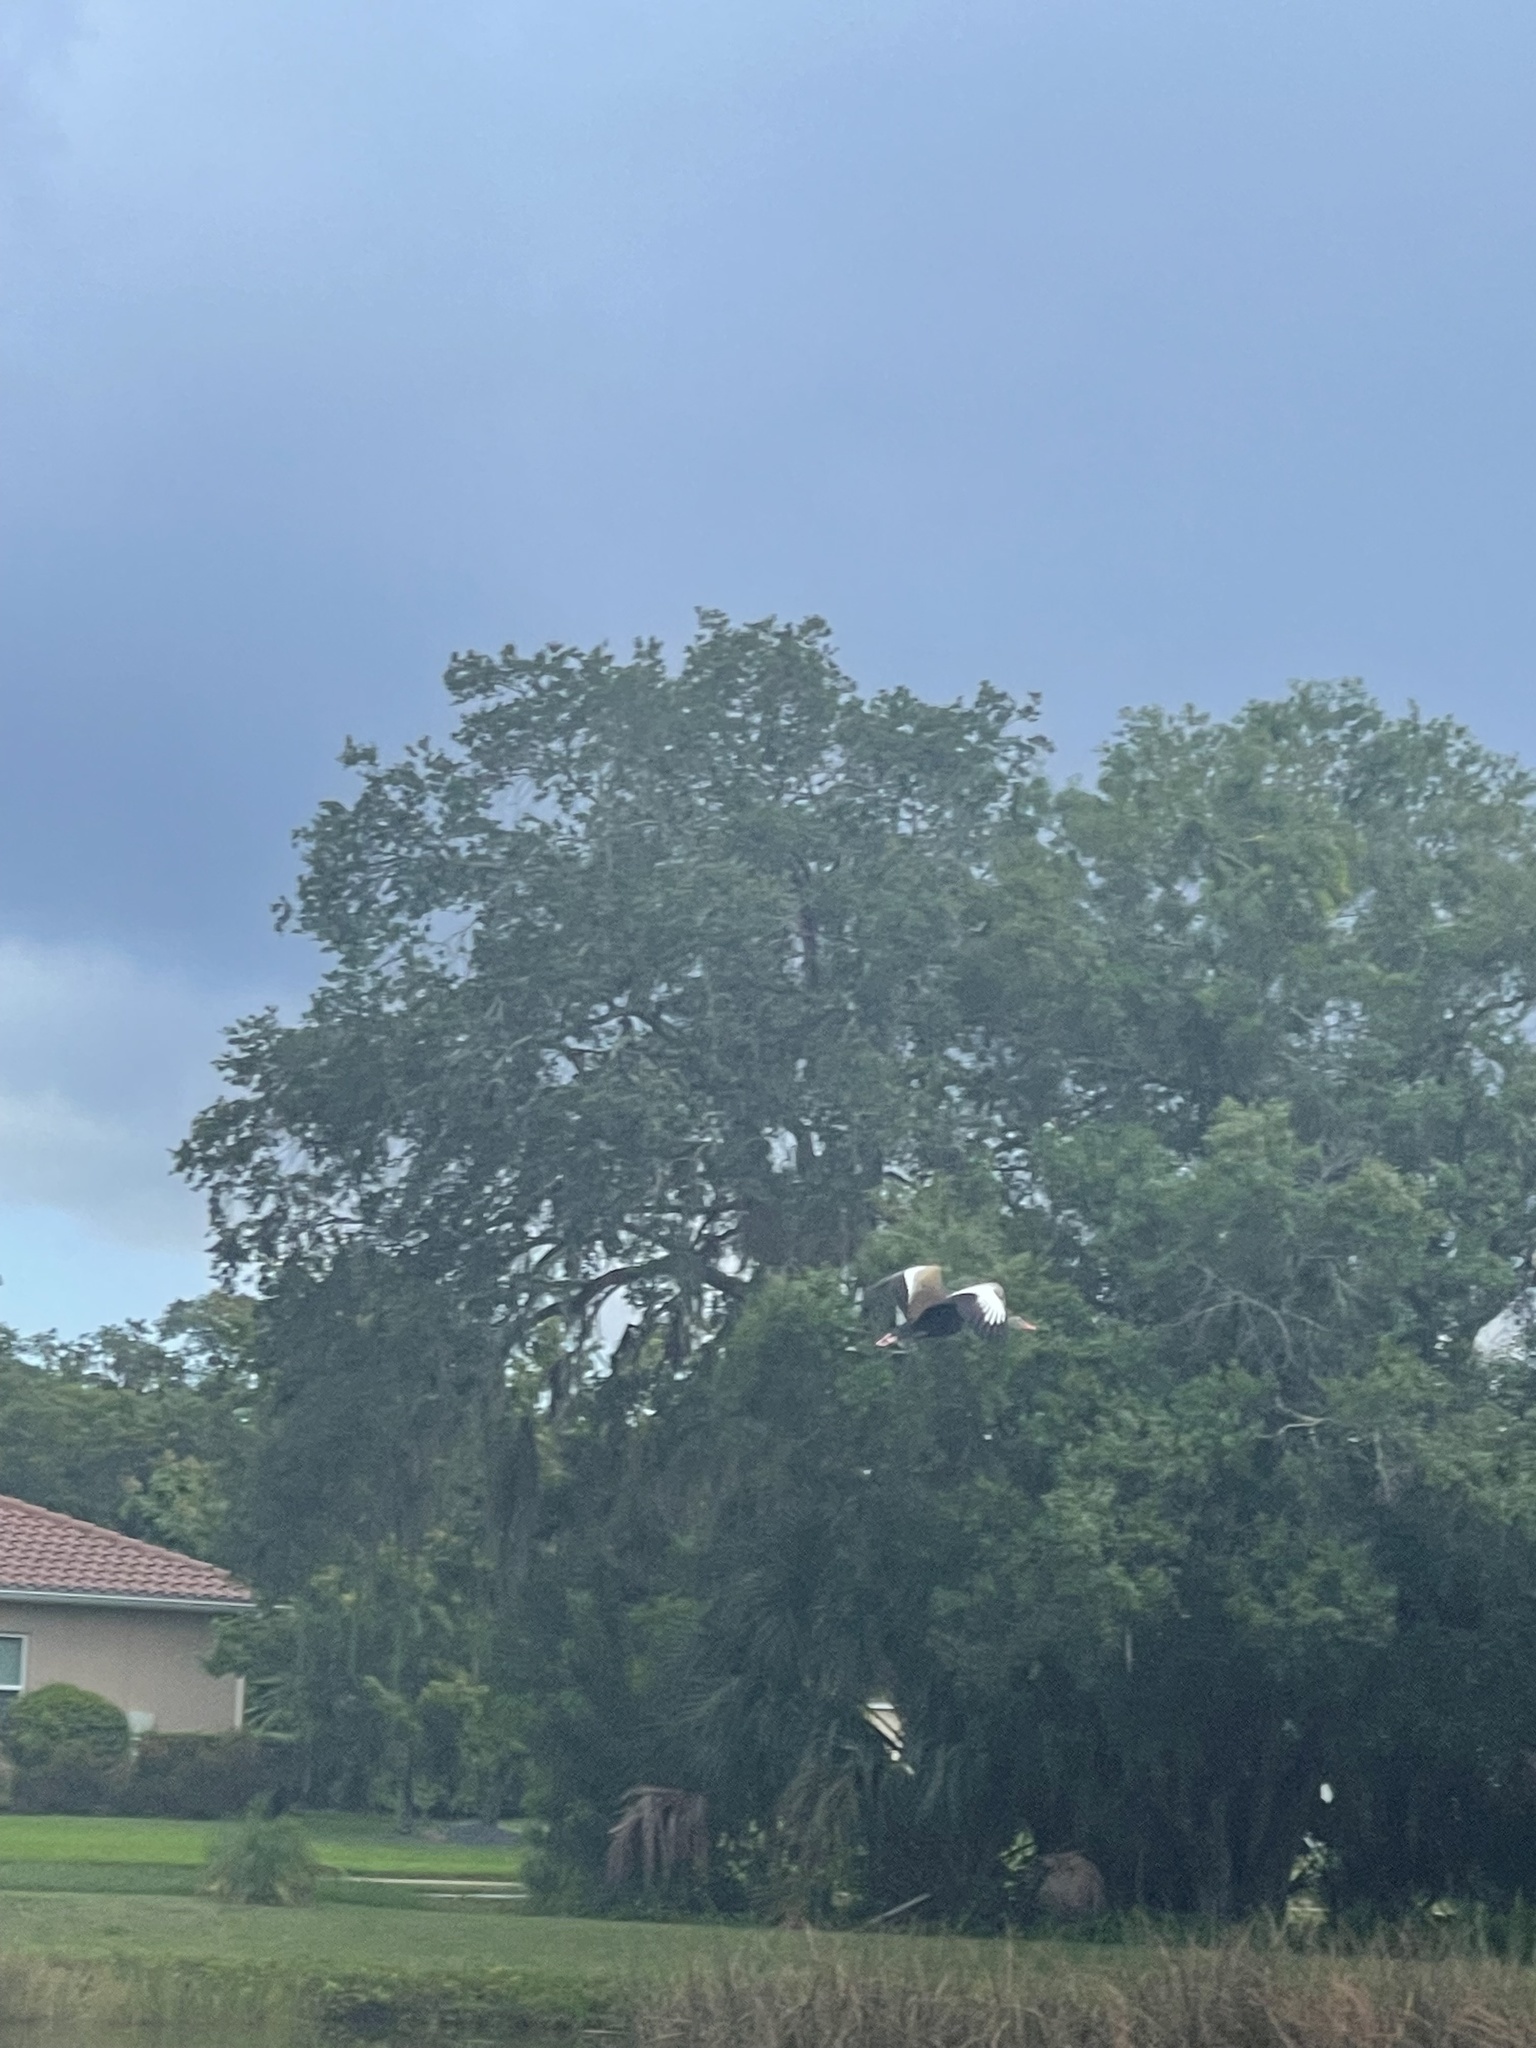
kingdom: Animalia
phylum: Chordata
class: Aves
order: Anseriformes
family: Anatidae
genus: Dendrocygna
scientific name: Dendrocygna autumnalis
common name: Black-bellied whistling duck
